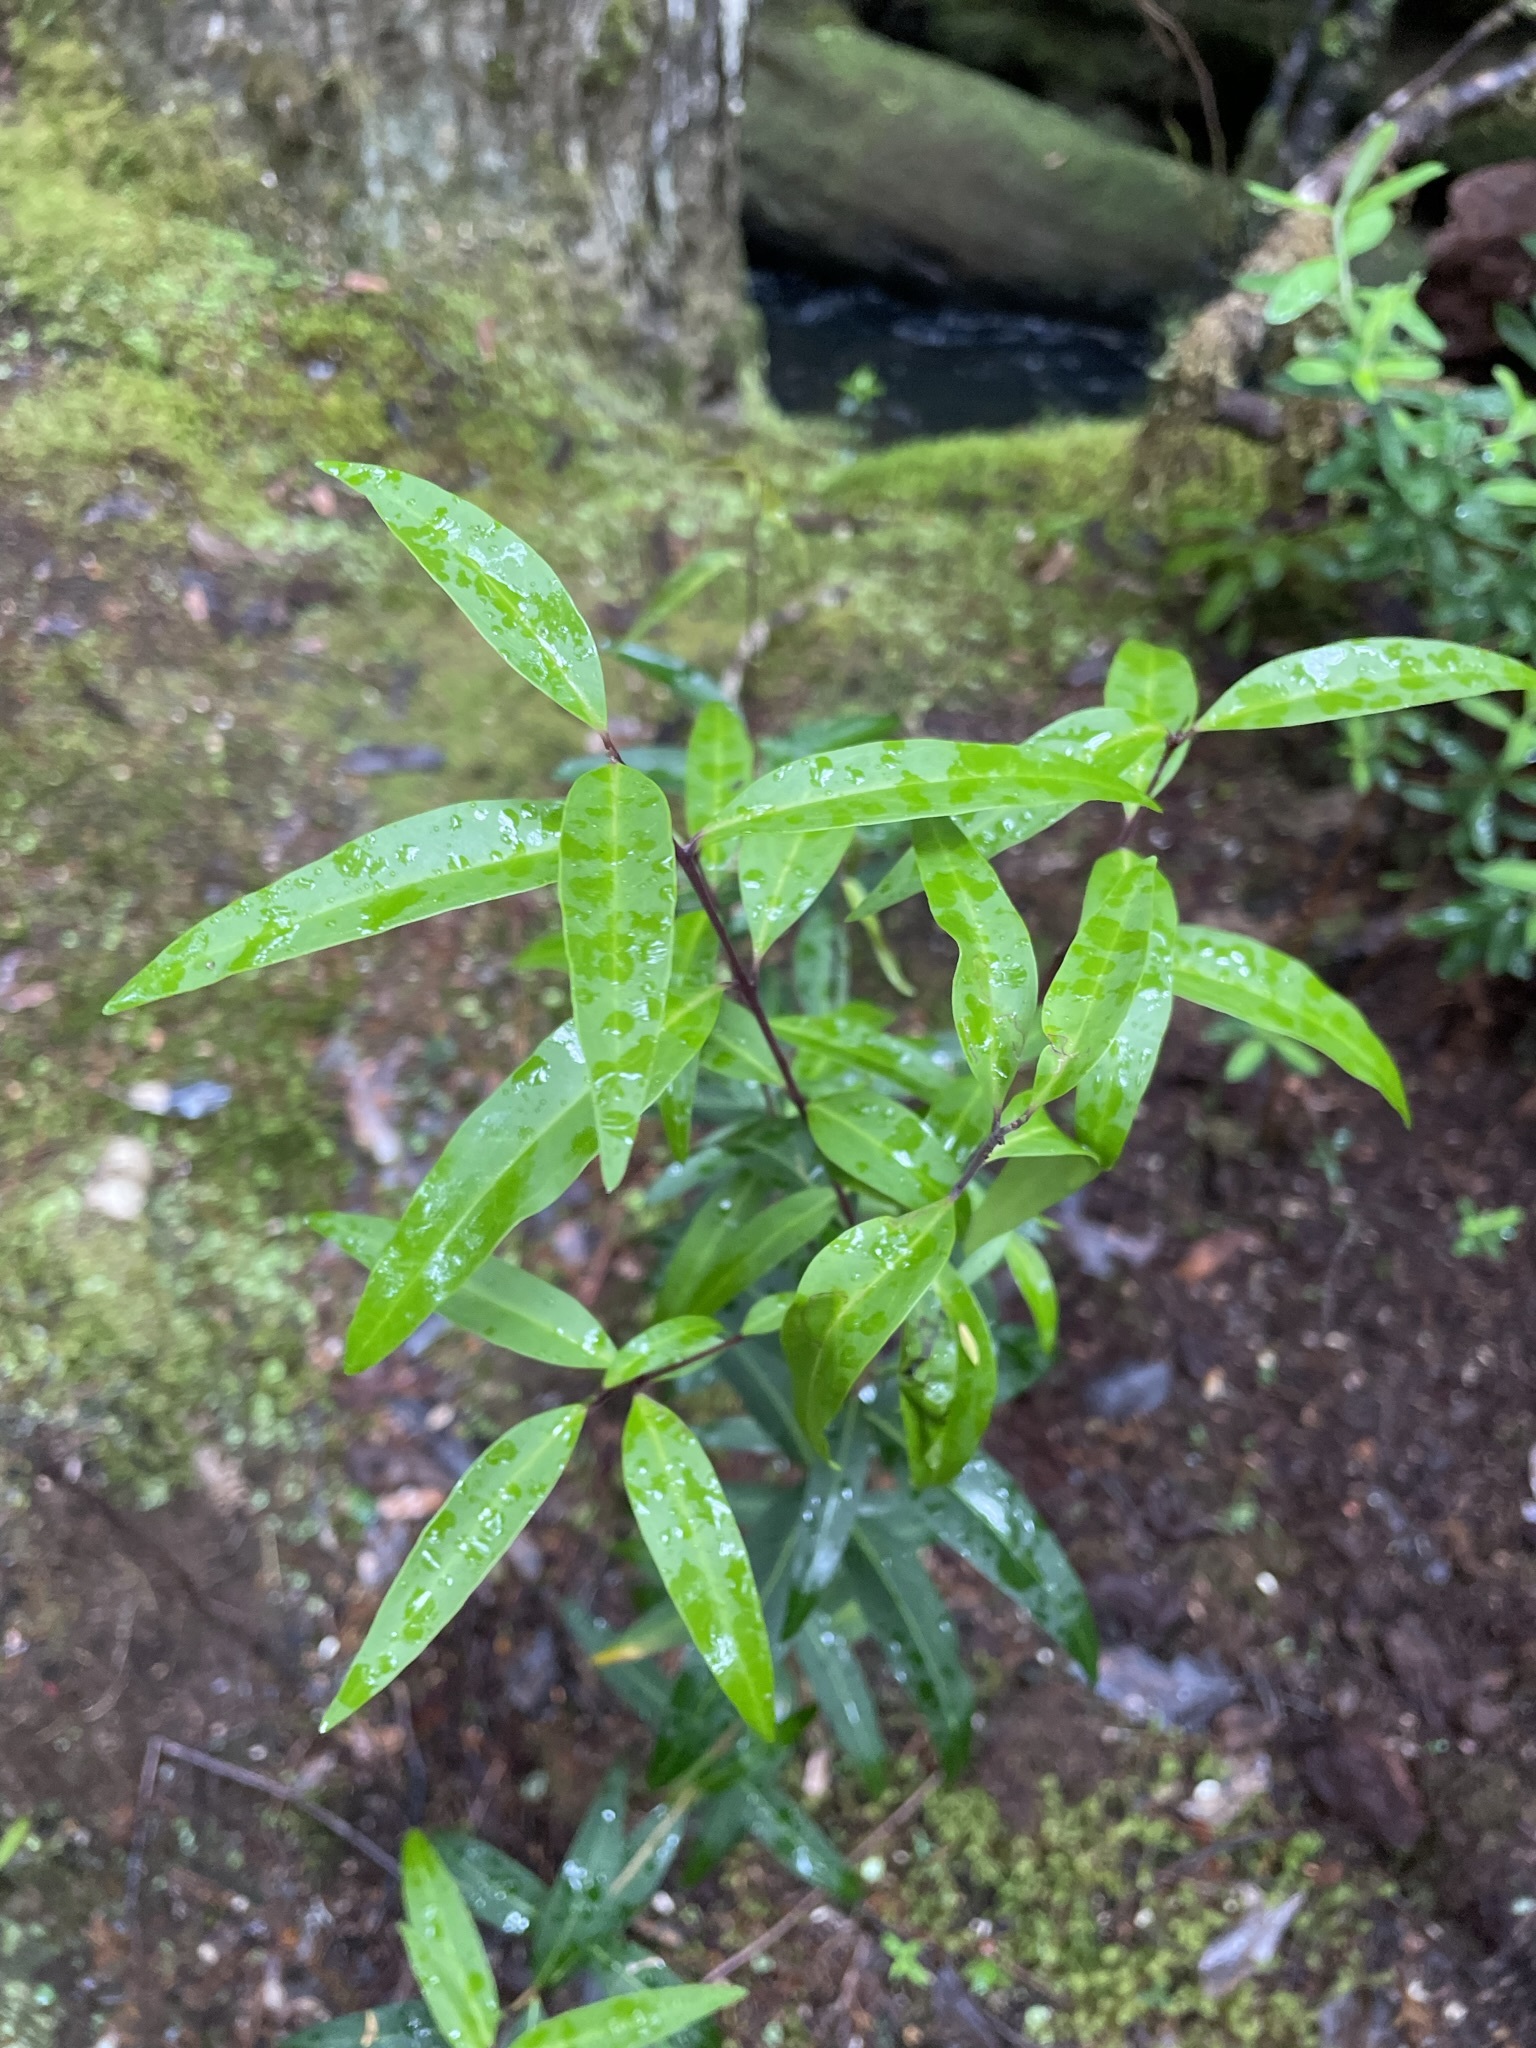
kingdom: Plantae
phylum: Tracheophyta
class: Magnoliopsida
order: Lamiales
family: Oleaceae
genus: Notelaea
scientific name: Notelaea ligustrina
